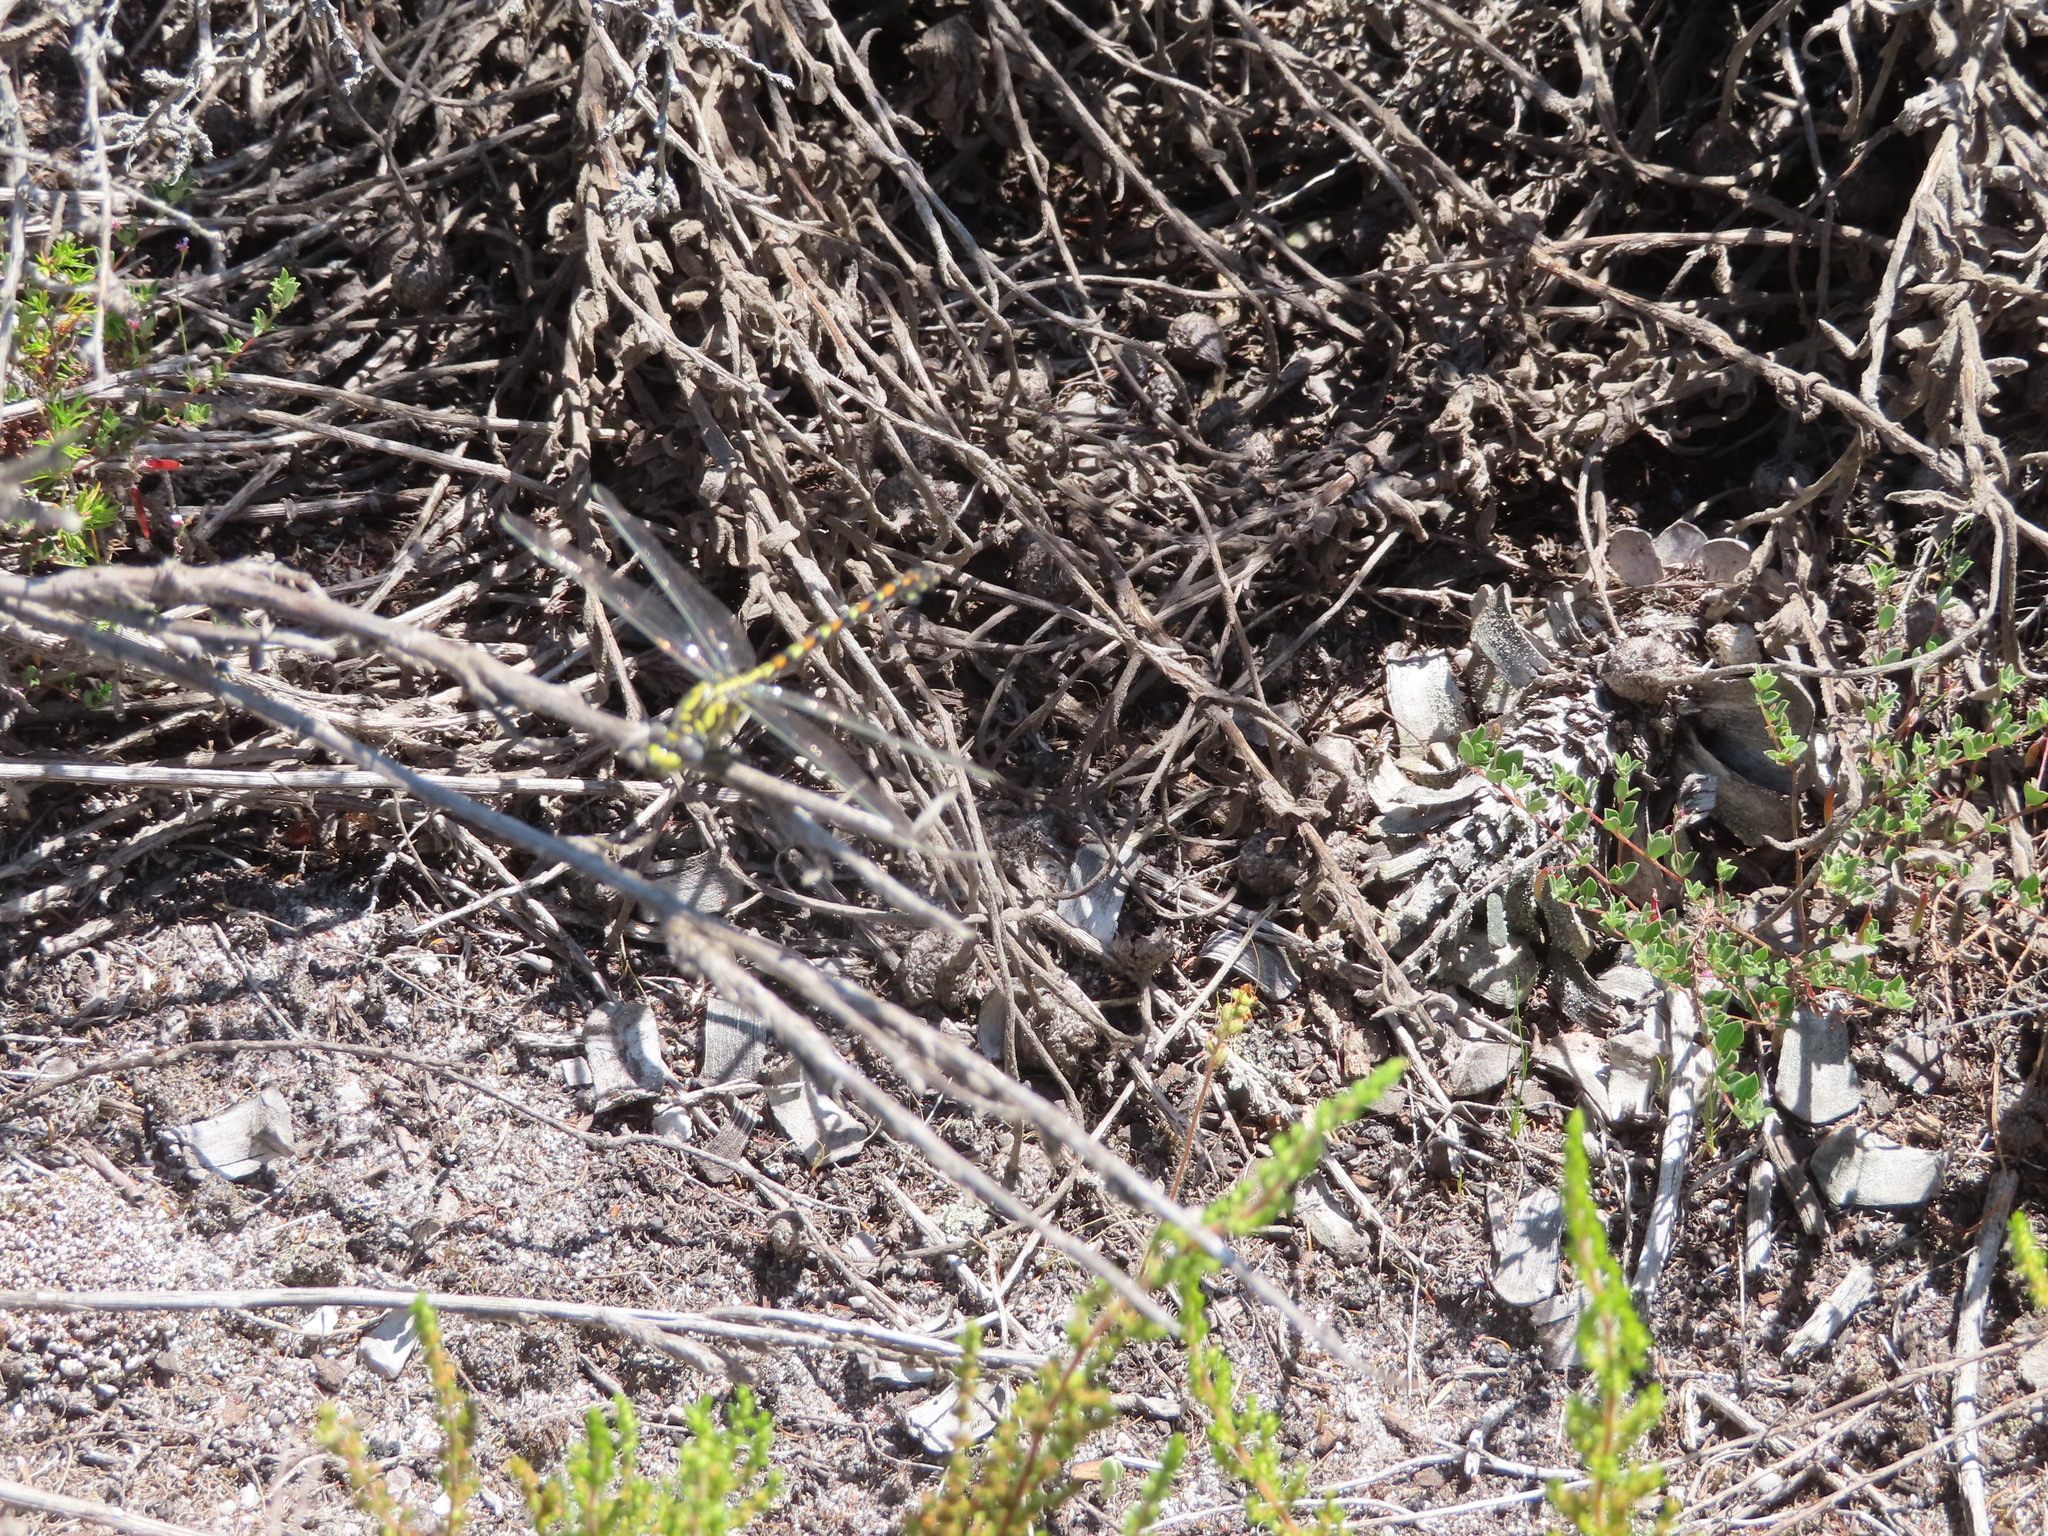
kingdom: Animalia
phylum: Arthropoda
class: Insecta
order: Odonata
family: Gomphidae
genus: Paragomphus
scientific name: Paragomphus cognatus
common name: Boulder hooktail
